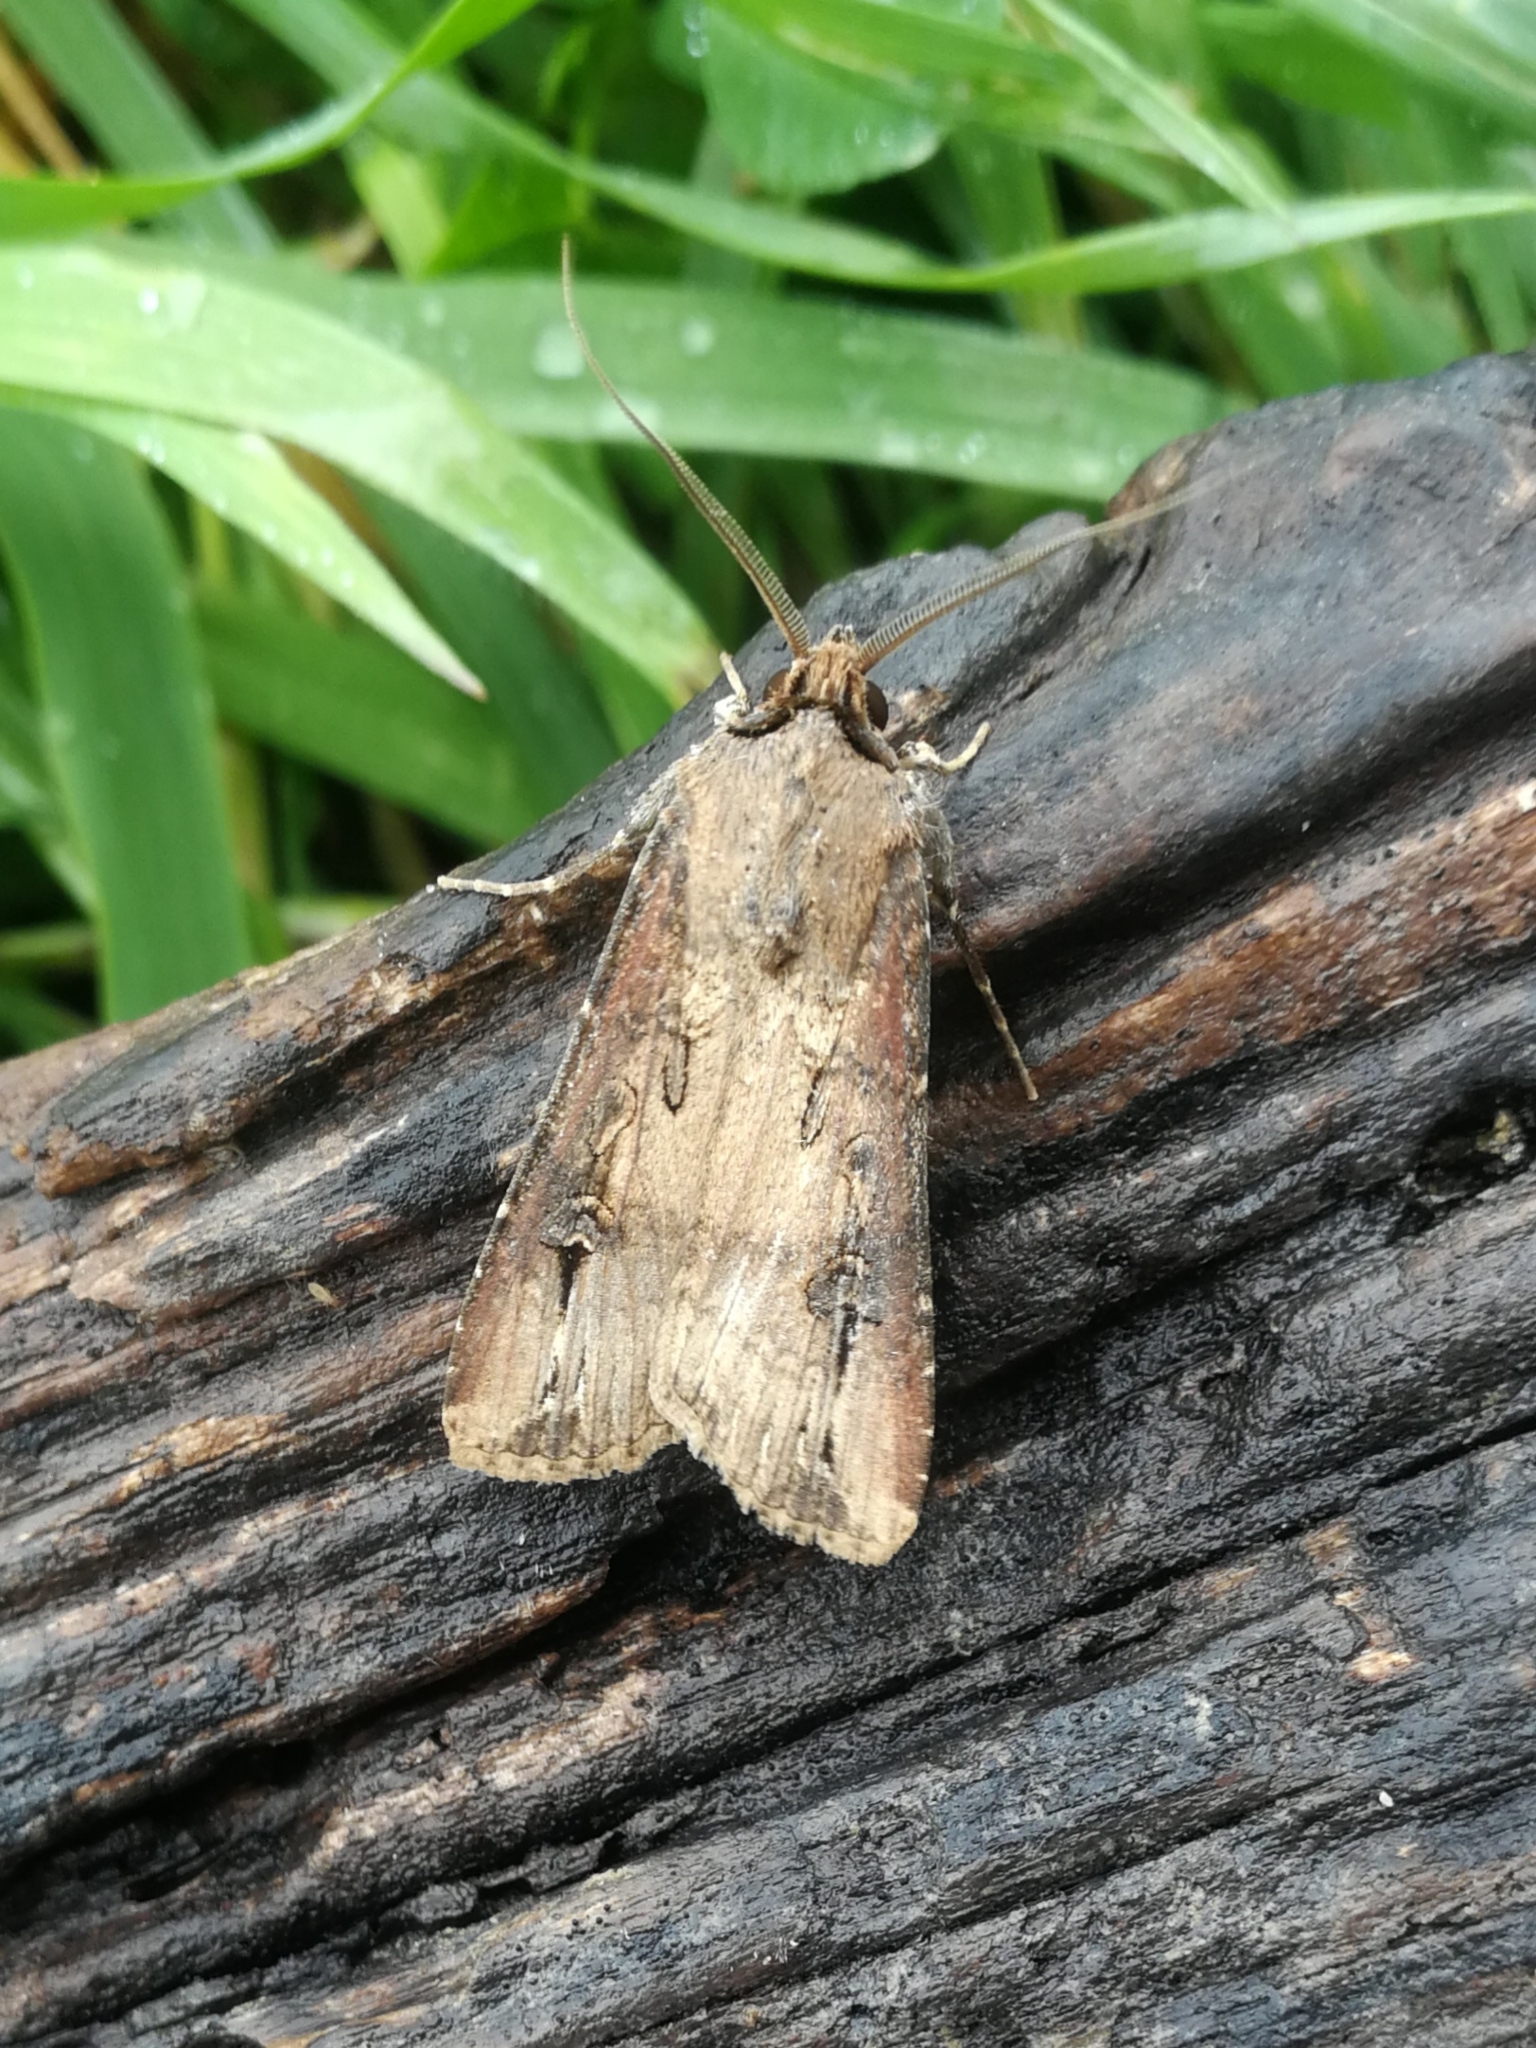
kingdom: Animalia
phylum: Arthropoda
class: Insecta
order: Lepidoptera
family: Noctuidae
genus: Agrotis
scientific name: Agrotis ipsilon
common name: Dark sword-grass
